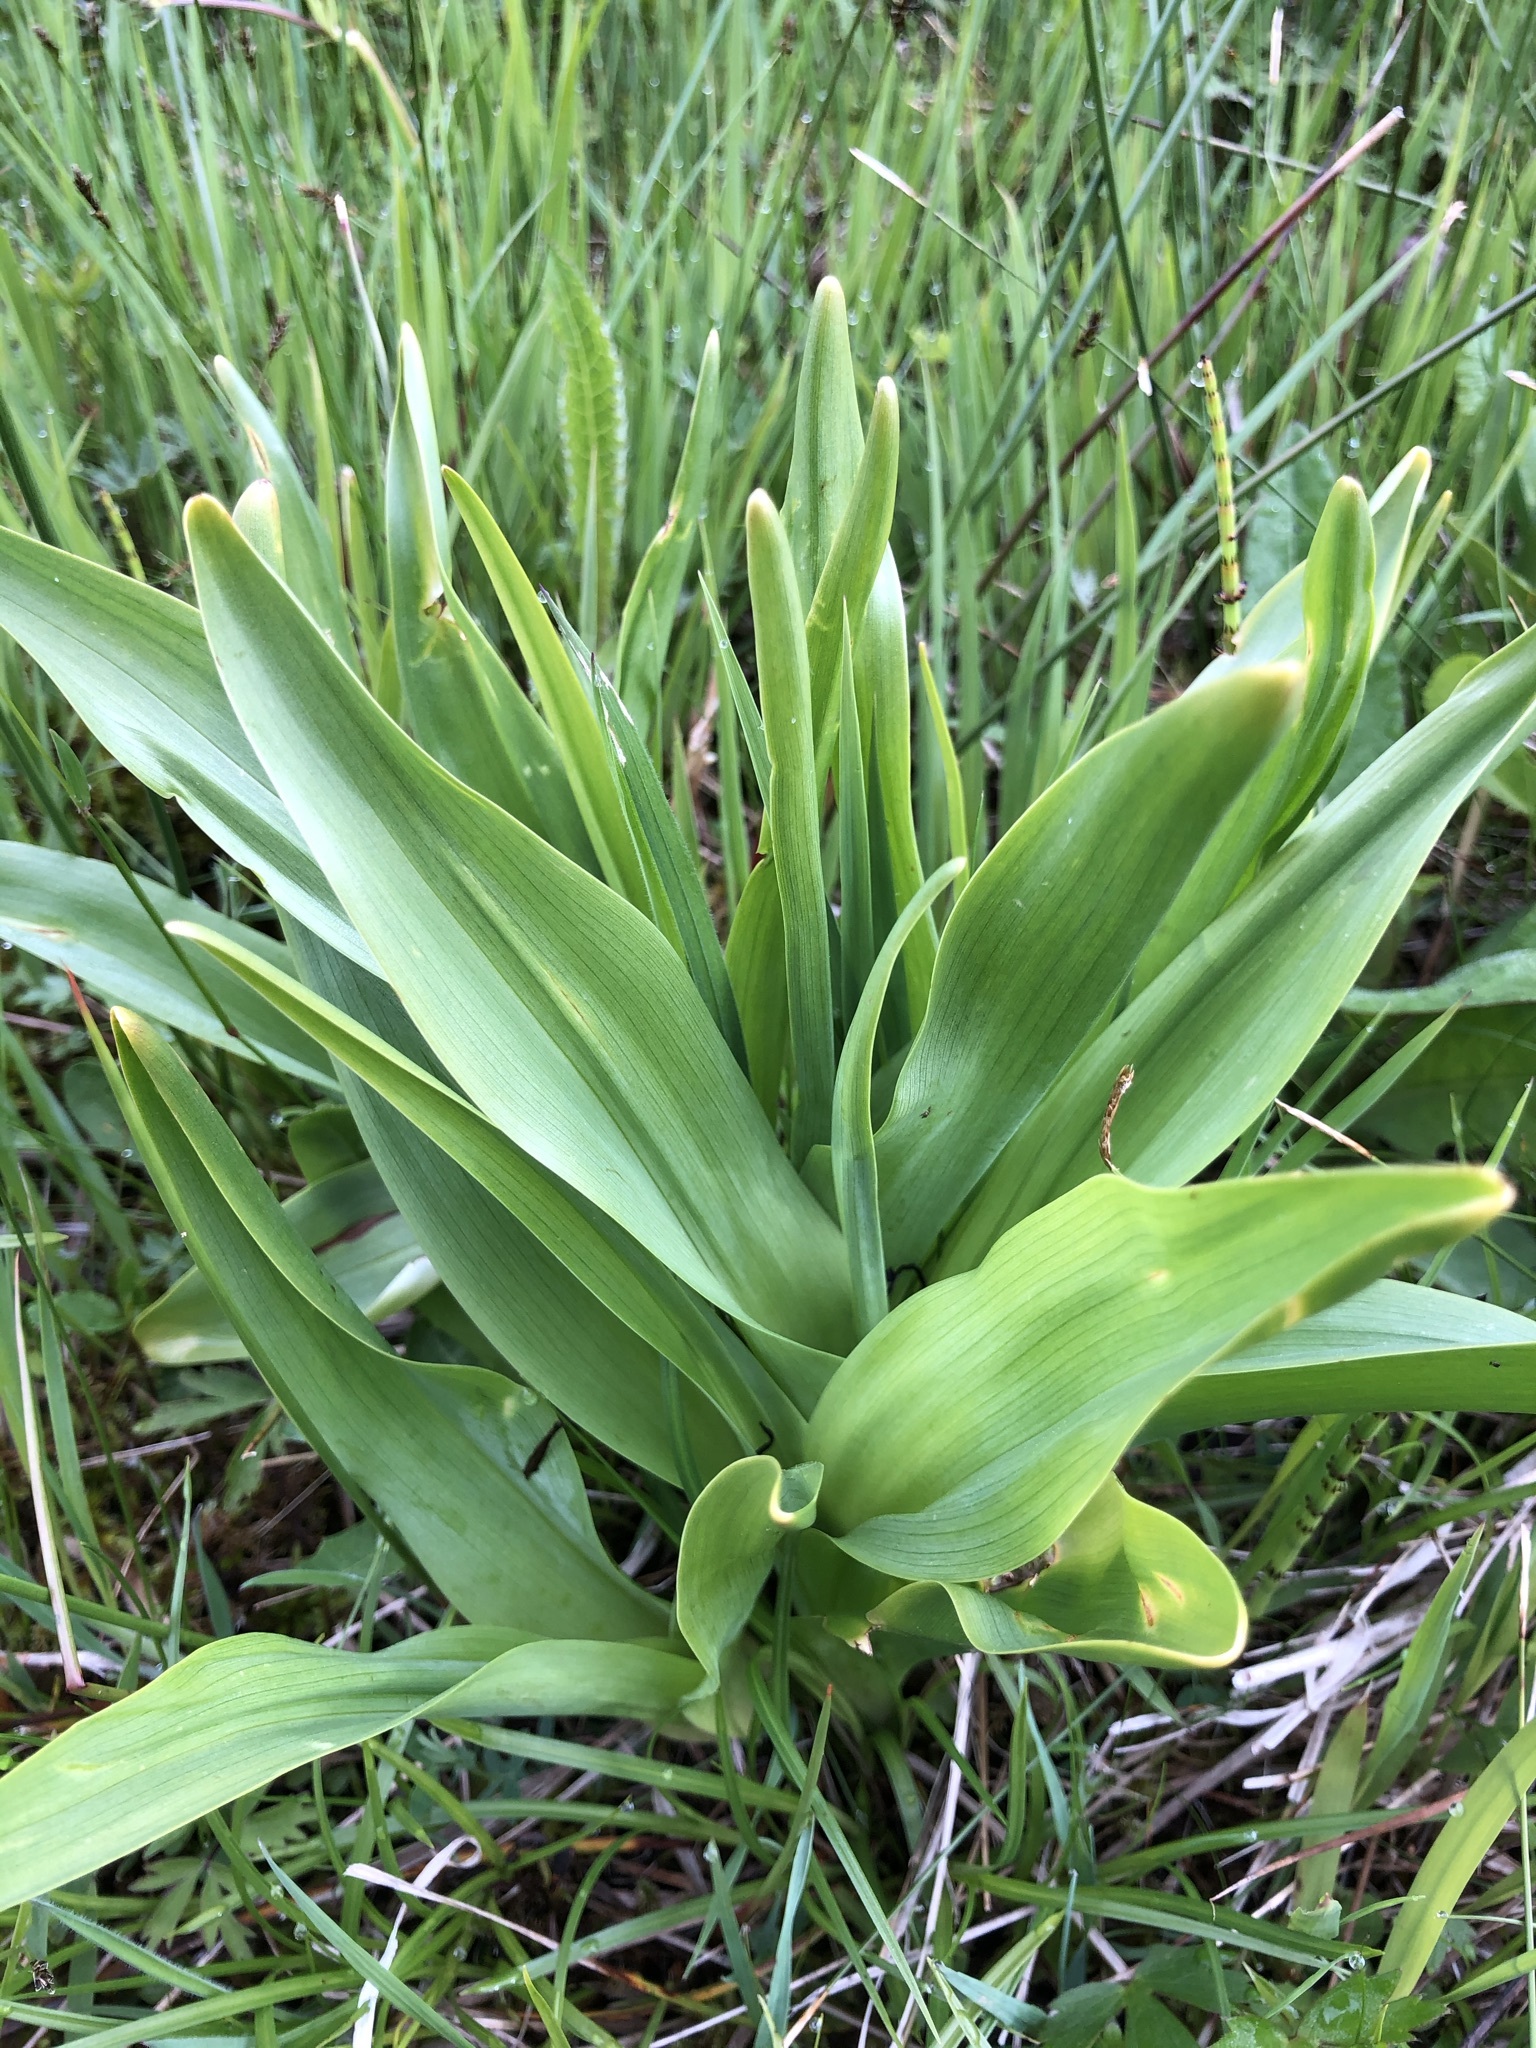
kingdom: Plantae
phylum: Tracheophyta
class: Liliopsida
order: Liliales
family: Colchicaceae
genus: Colchicum
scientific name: Colchicum autumnale
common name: Autumn crocus
